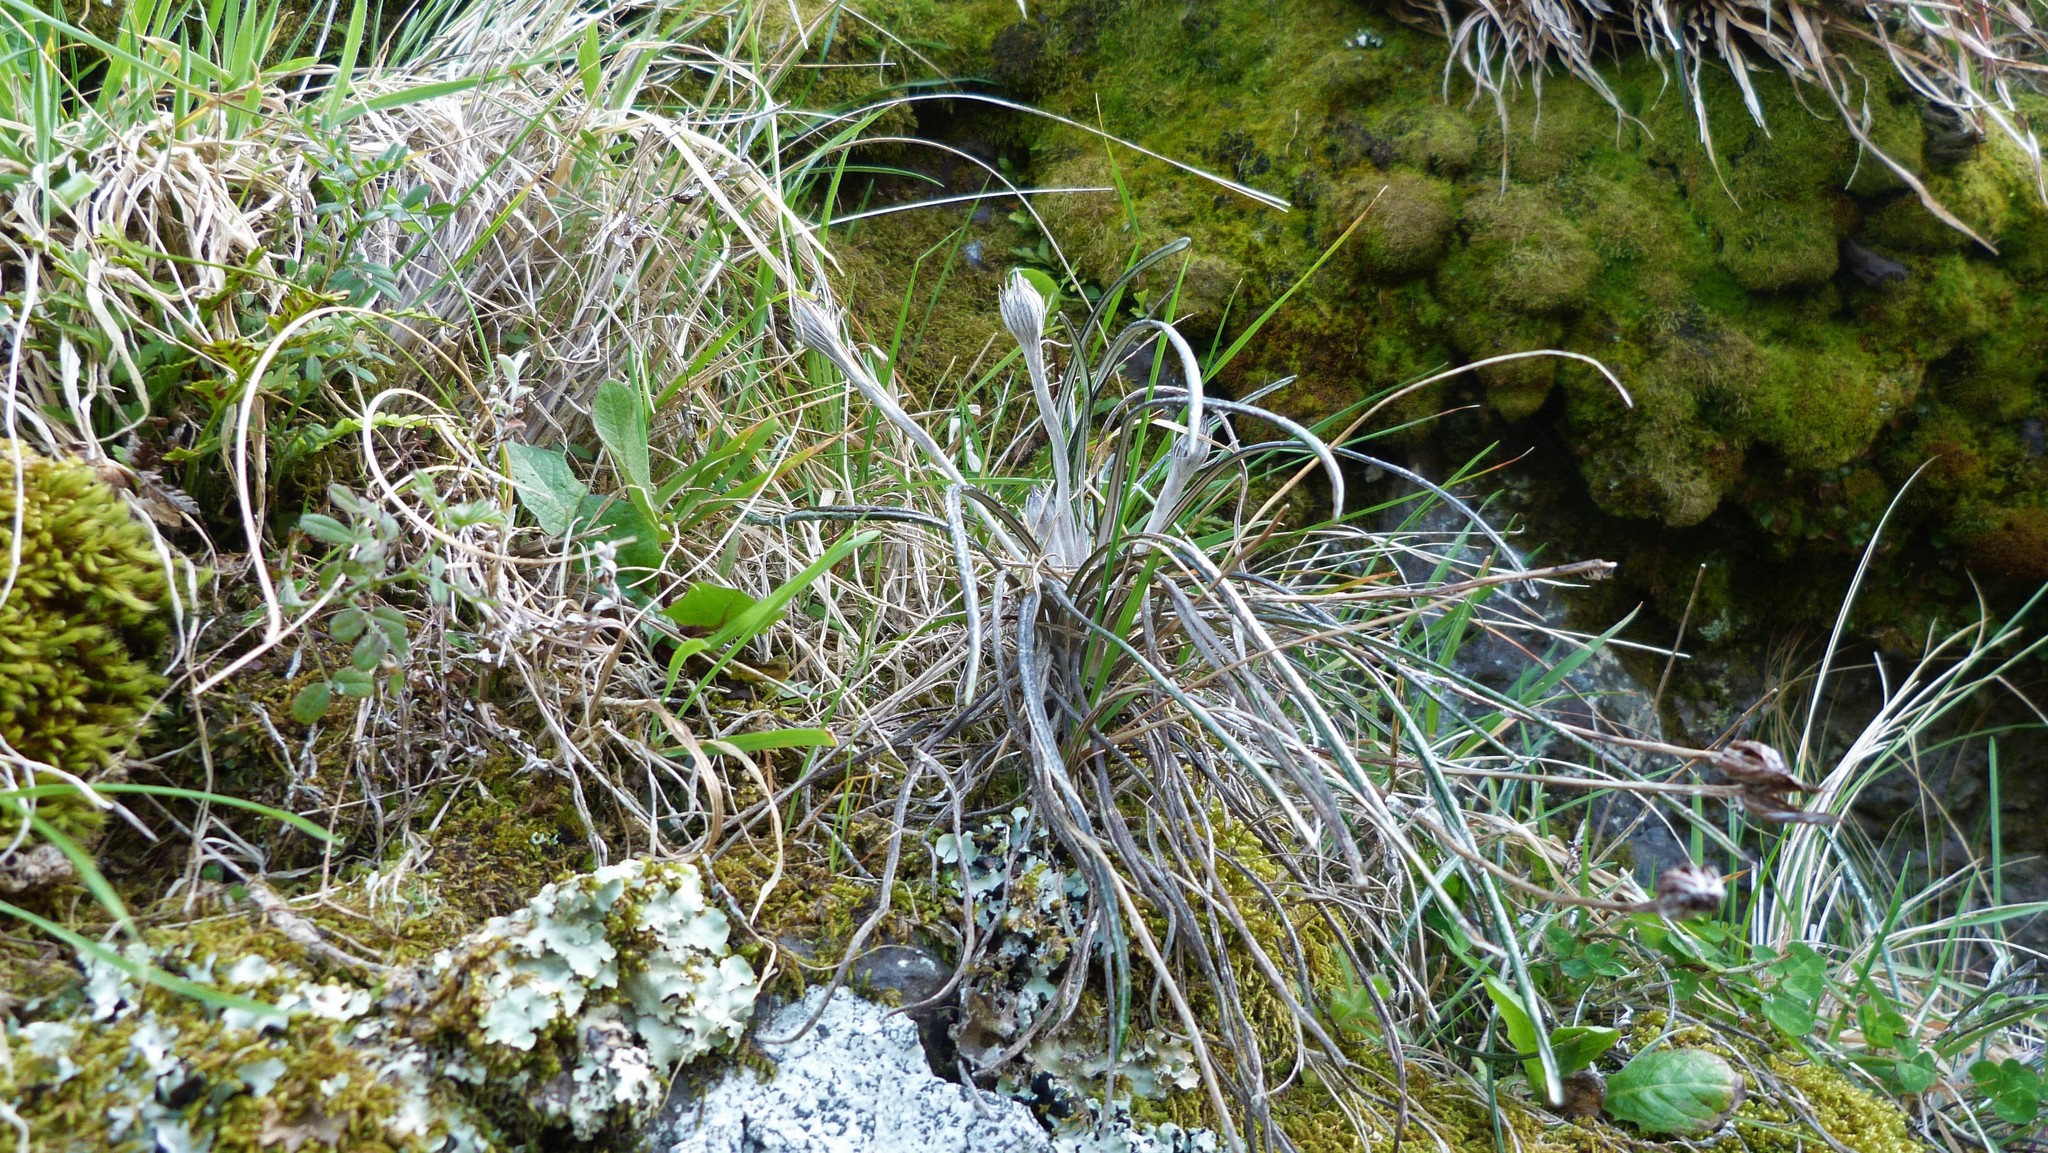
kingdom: Plantae
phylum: Tracheophyta
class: Magnoliopsida
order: Asterales
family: Asteraceae
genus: Celmisia
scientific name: Celmisia gracilenta
